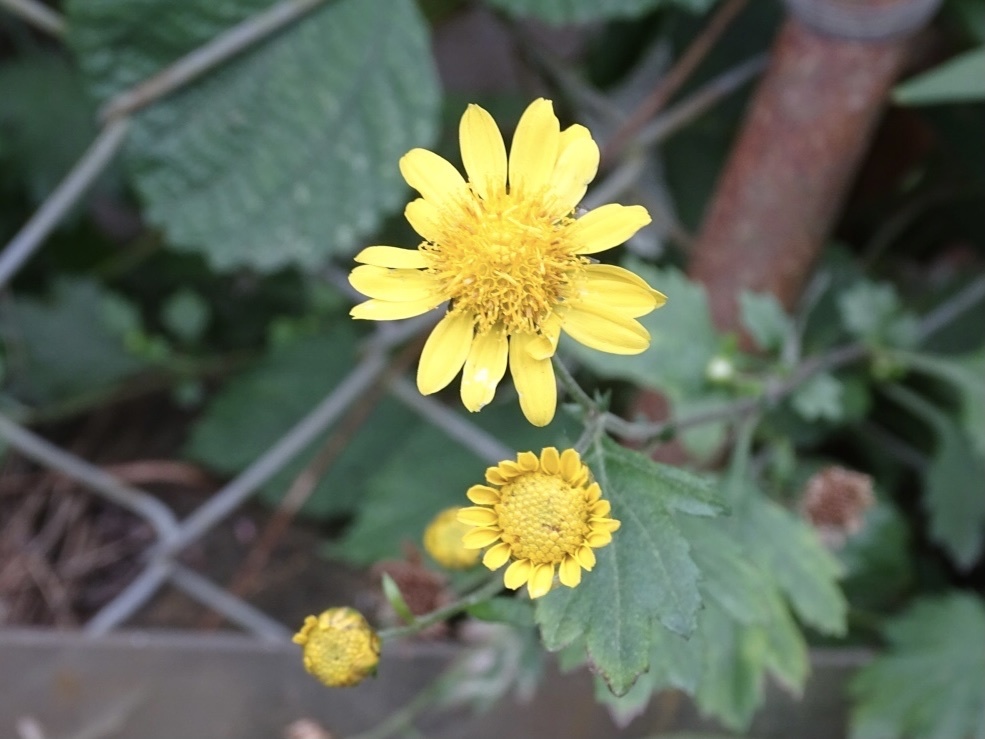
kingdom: Plantae
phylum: Tracheophyta
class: Magnoliopsida
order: Asterales
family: Asteraceae
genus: Chrysanthemum
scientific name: Chrysanthemum indicum
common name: Indian chrysanthemum
